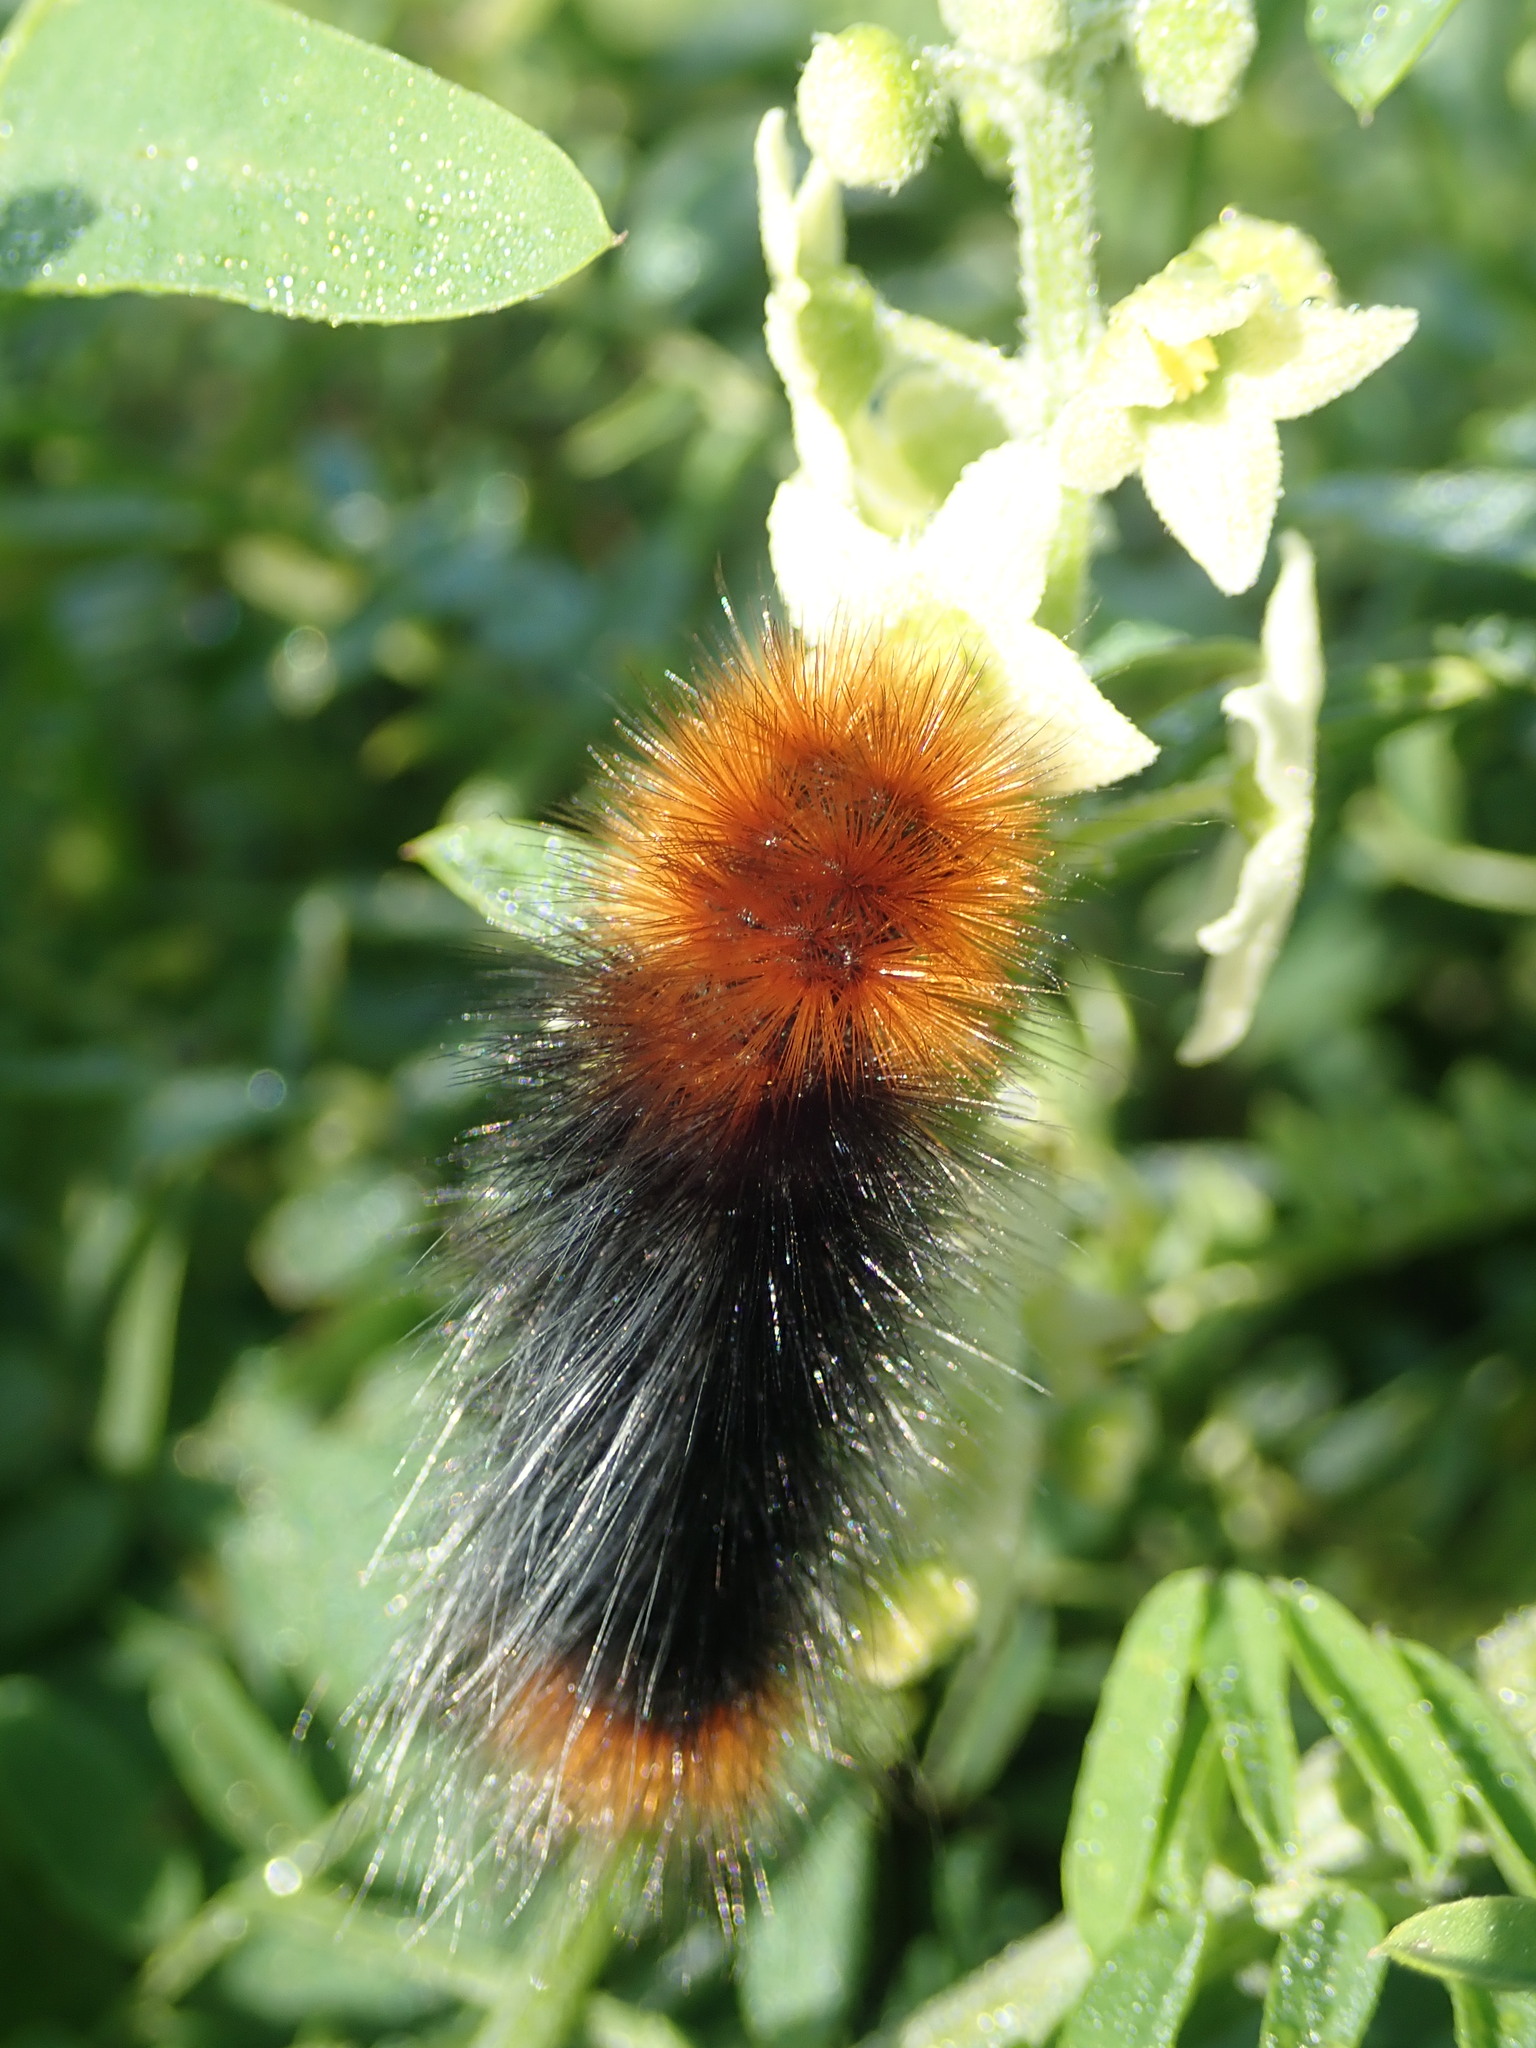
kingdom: Animalia
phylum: Arthropoda
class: Insecta
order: Lepidoptera
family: Erebidae
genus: Arctia
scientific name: Arctia tigrina
